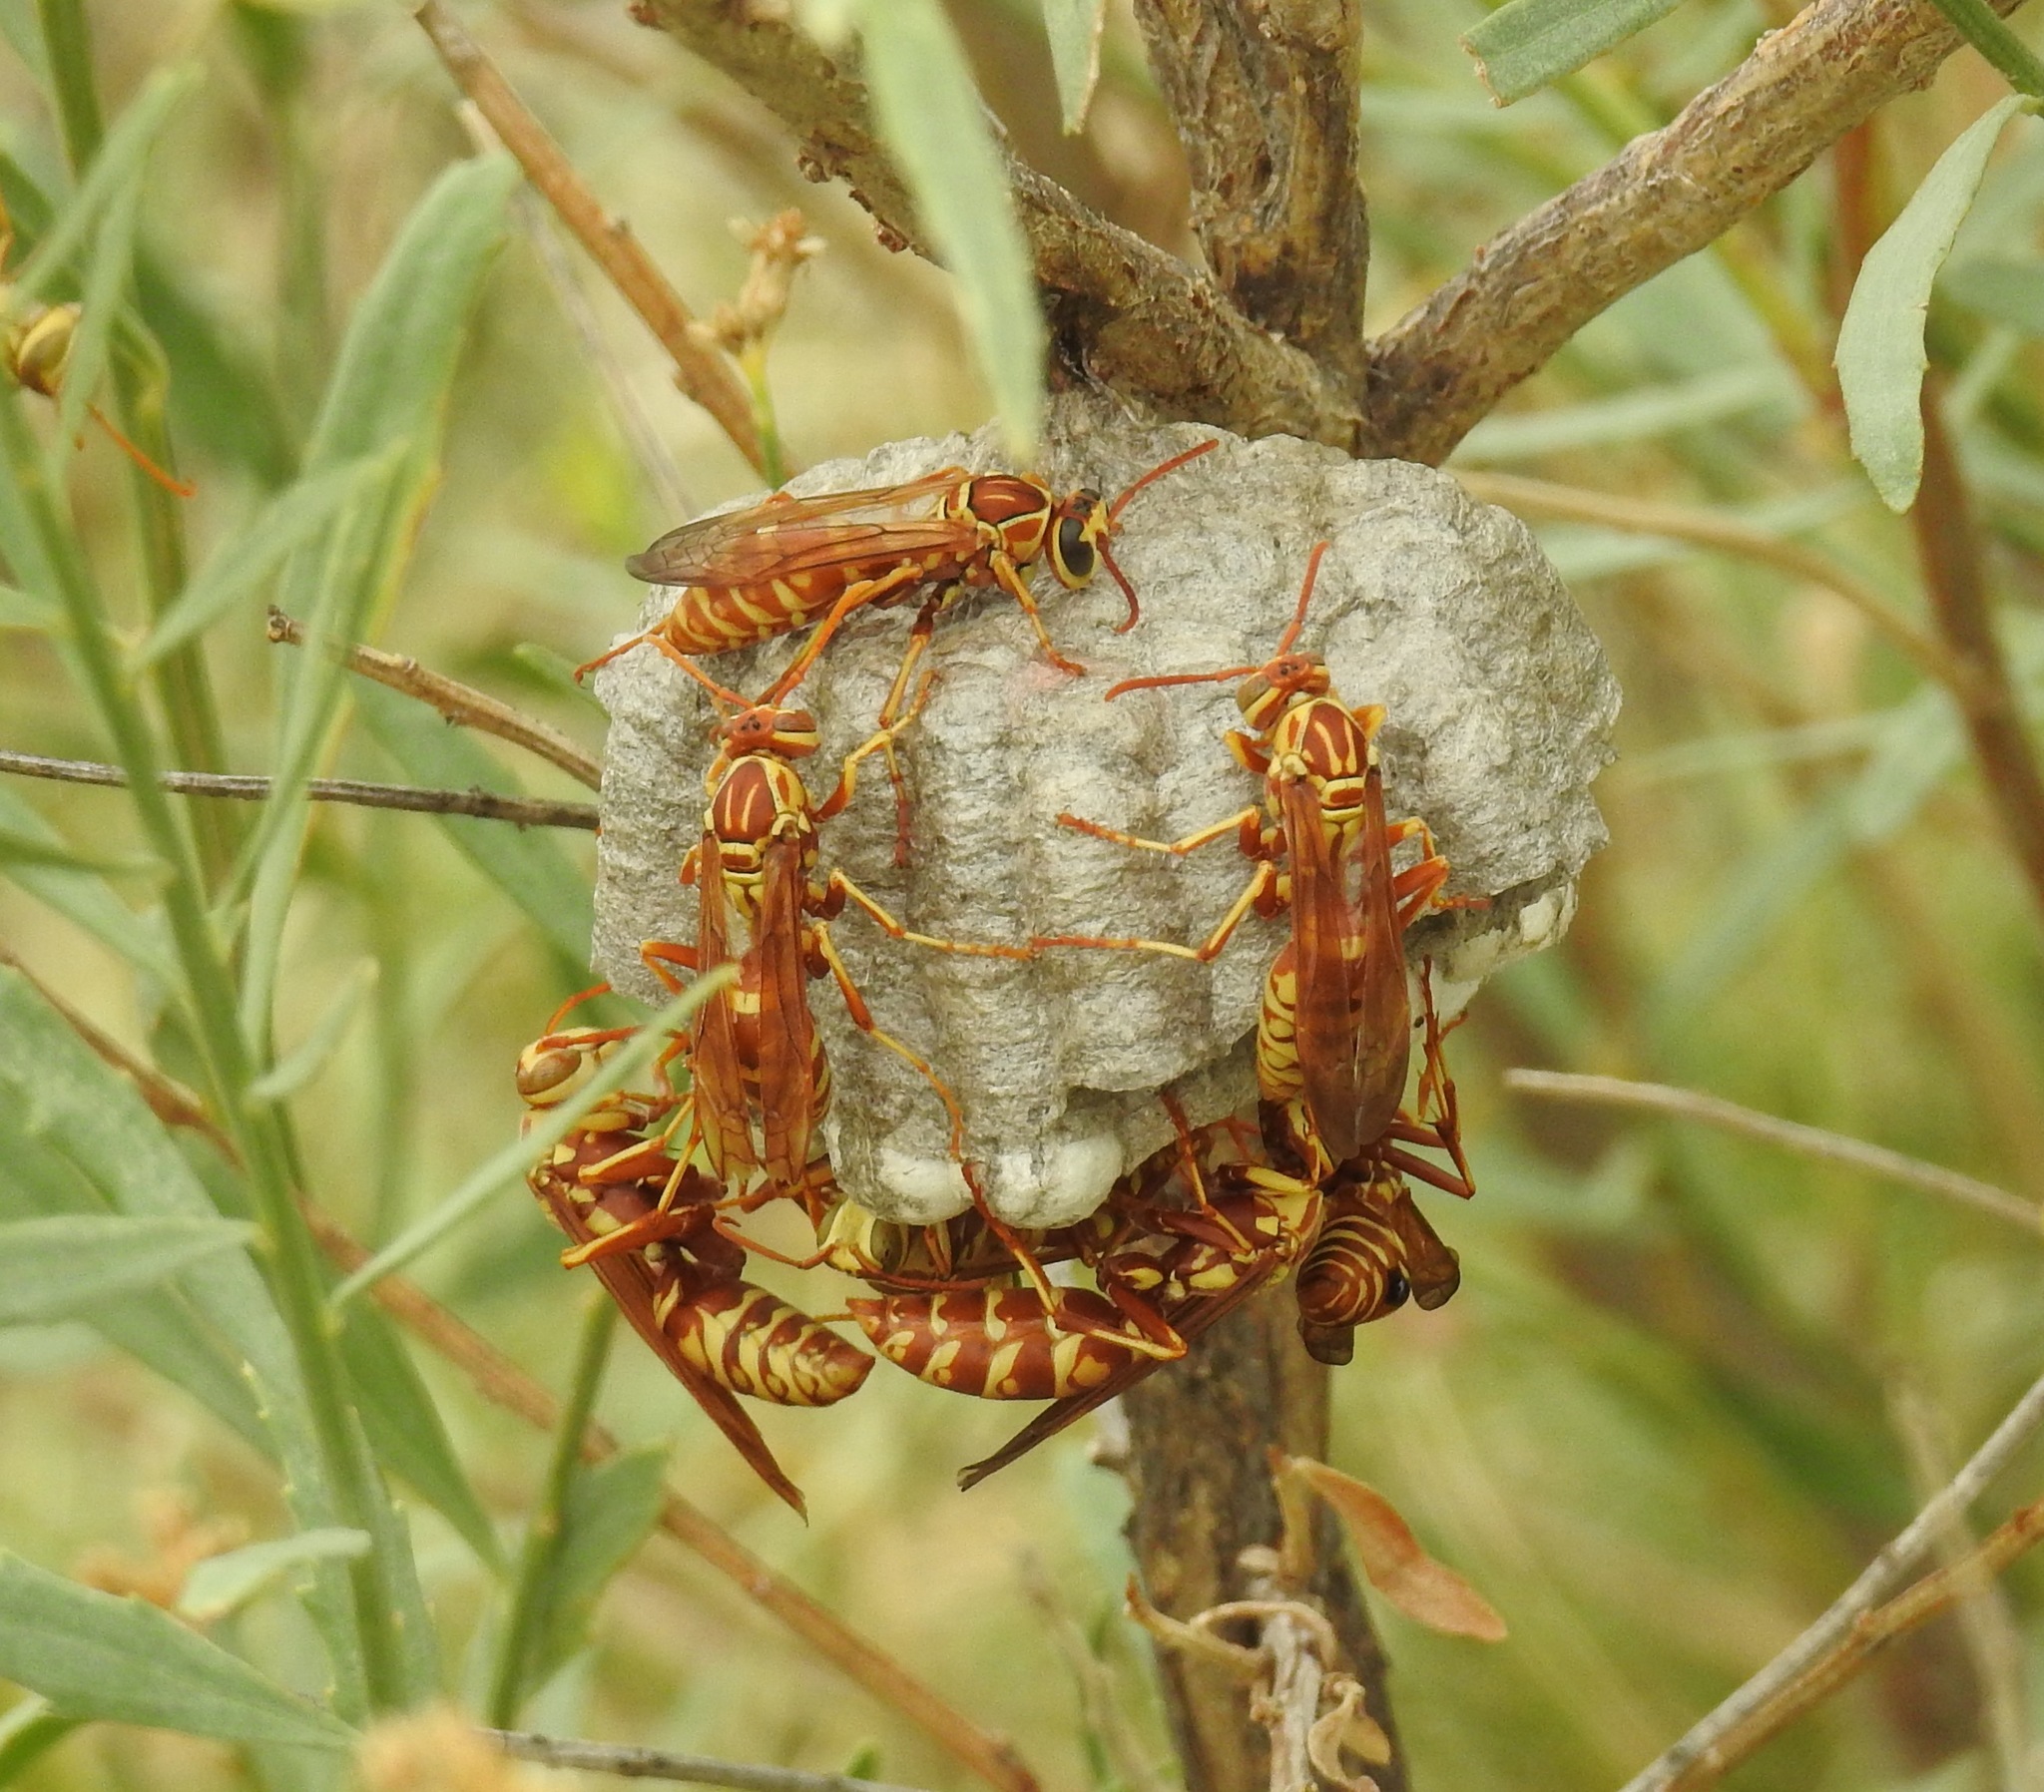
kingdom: Animalia
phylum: Arthropoda
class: Insecta
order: Hymenoptera
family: Eumenidae
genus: Polistes
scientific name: Polistes apachus
